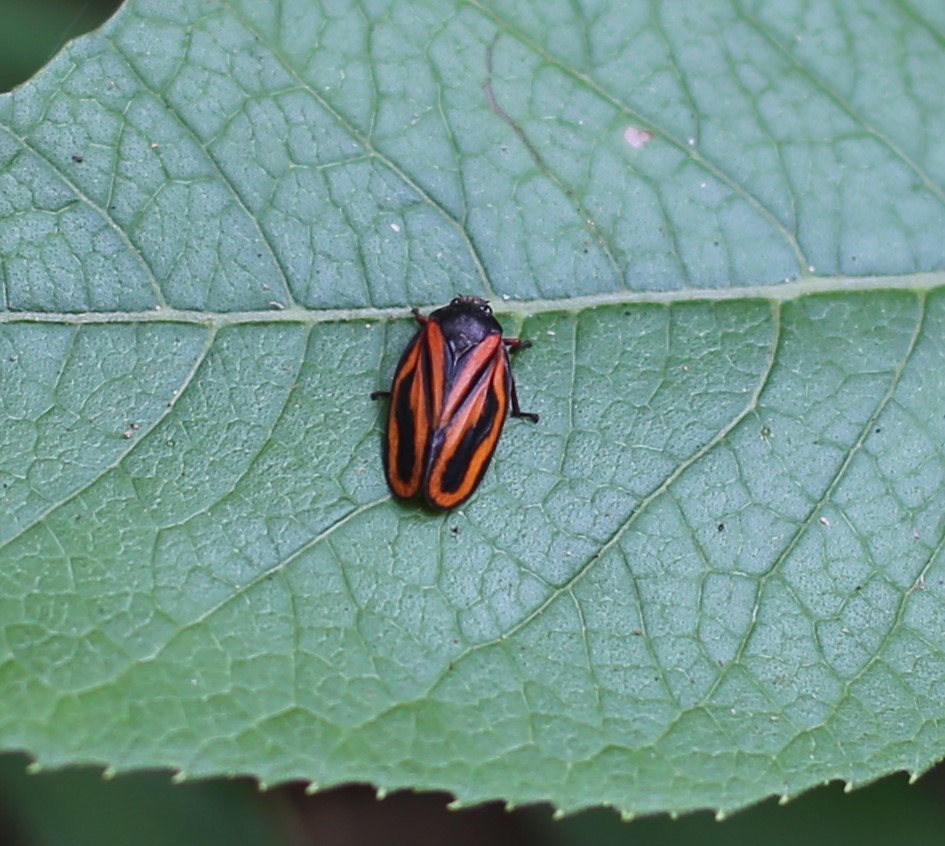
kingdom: Animalia
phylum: Arthropoda
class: Insecta
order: Hemiptera
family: Cercopidae
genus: Mahanarva
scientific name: Mahanarva fimbriolata
